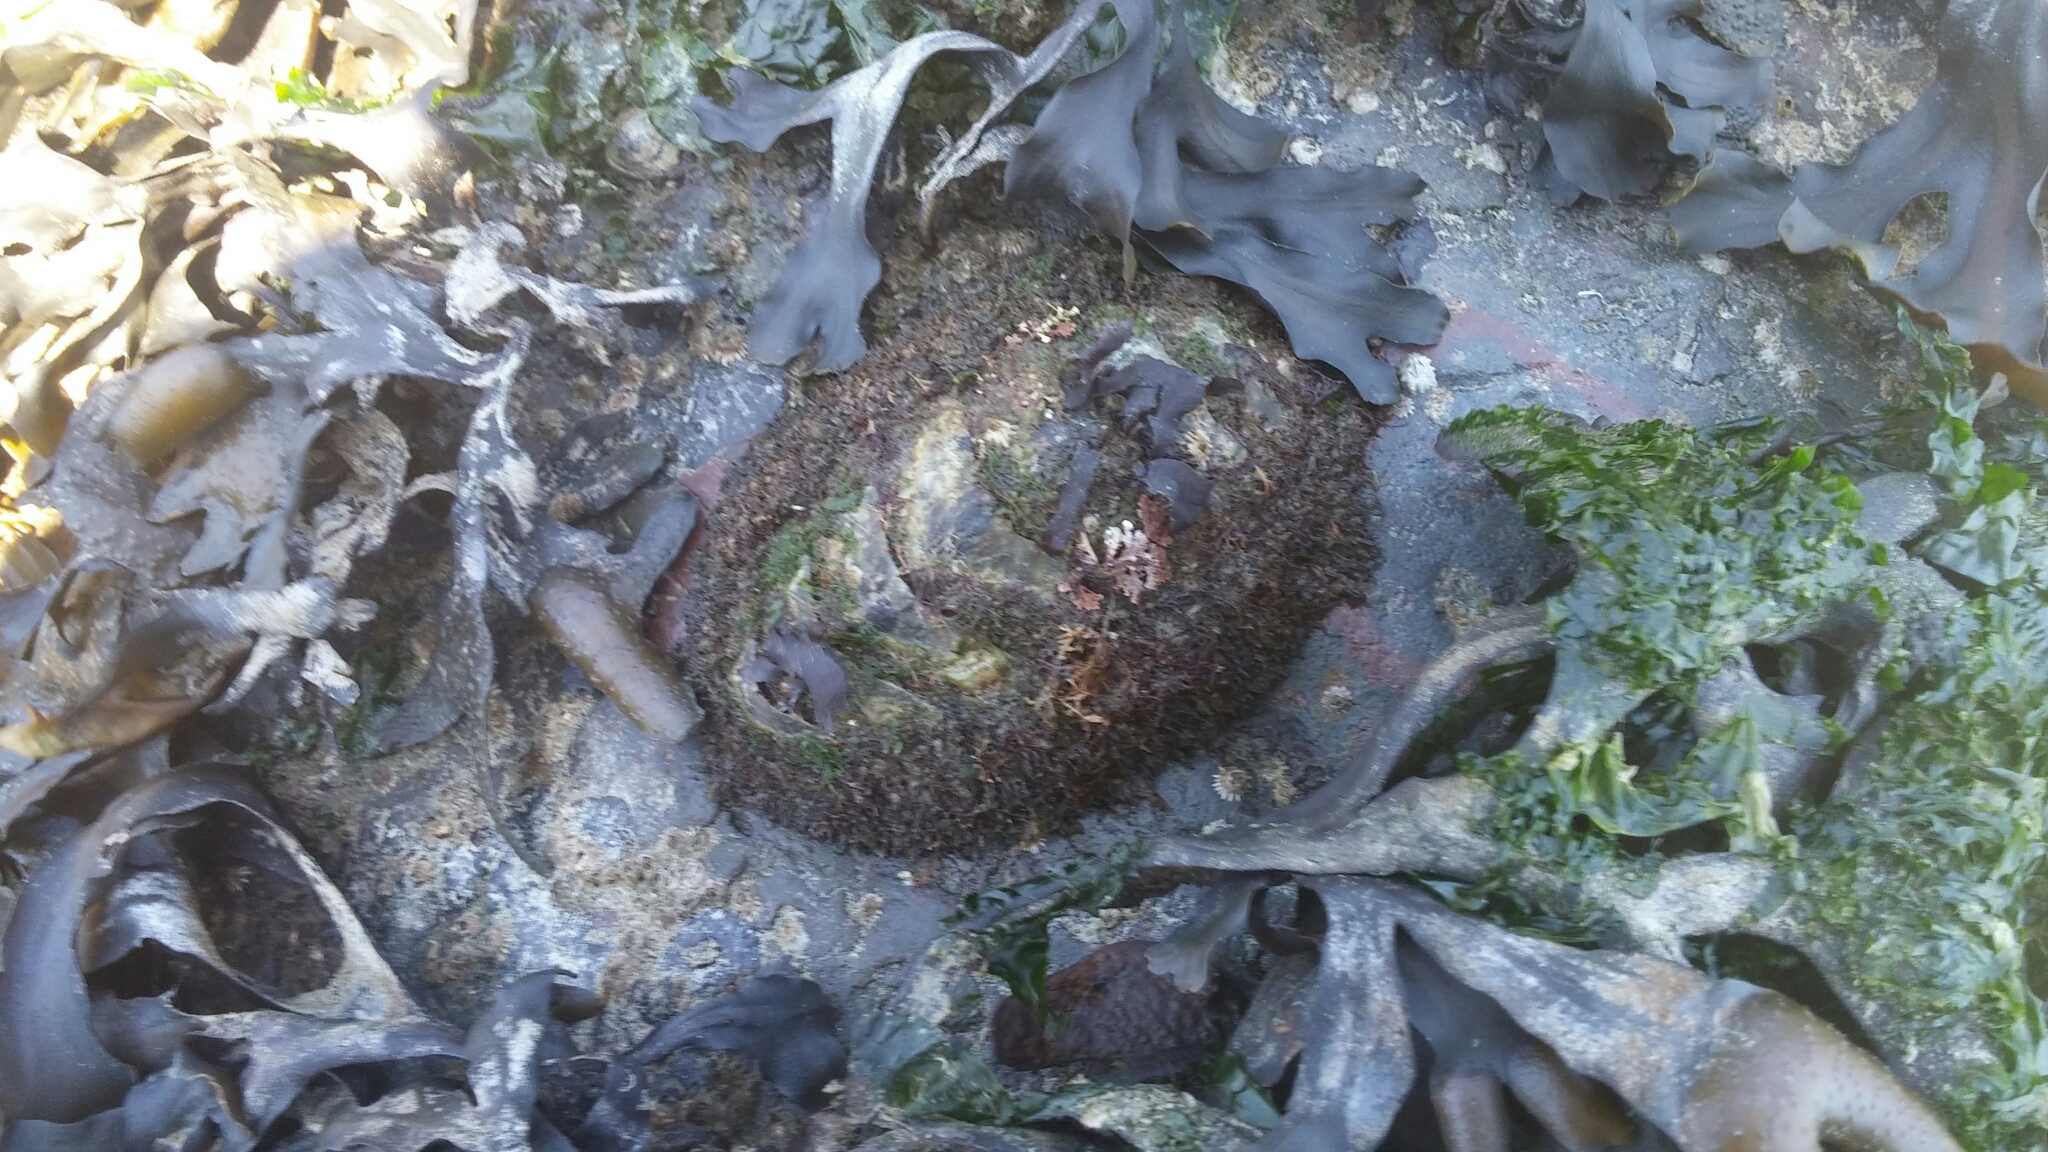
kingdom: Animalia
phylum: Mollusca
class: Polyplacophora
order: Chitonida
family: Mopaliidae
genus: Mopalia
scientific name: Mopalia muscosa
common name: Mossy chiton
